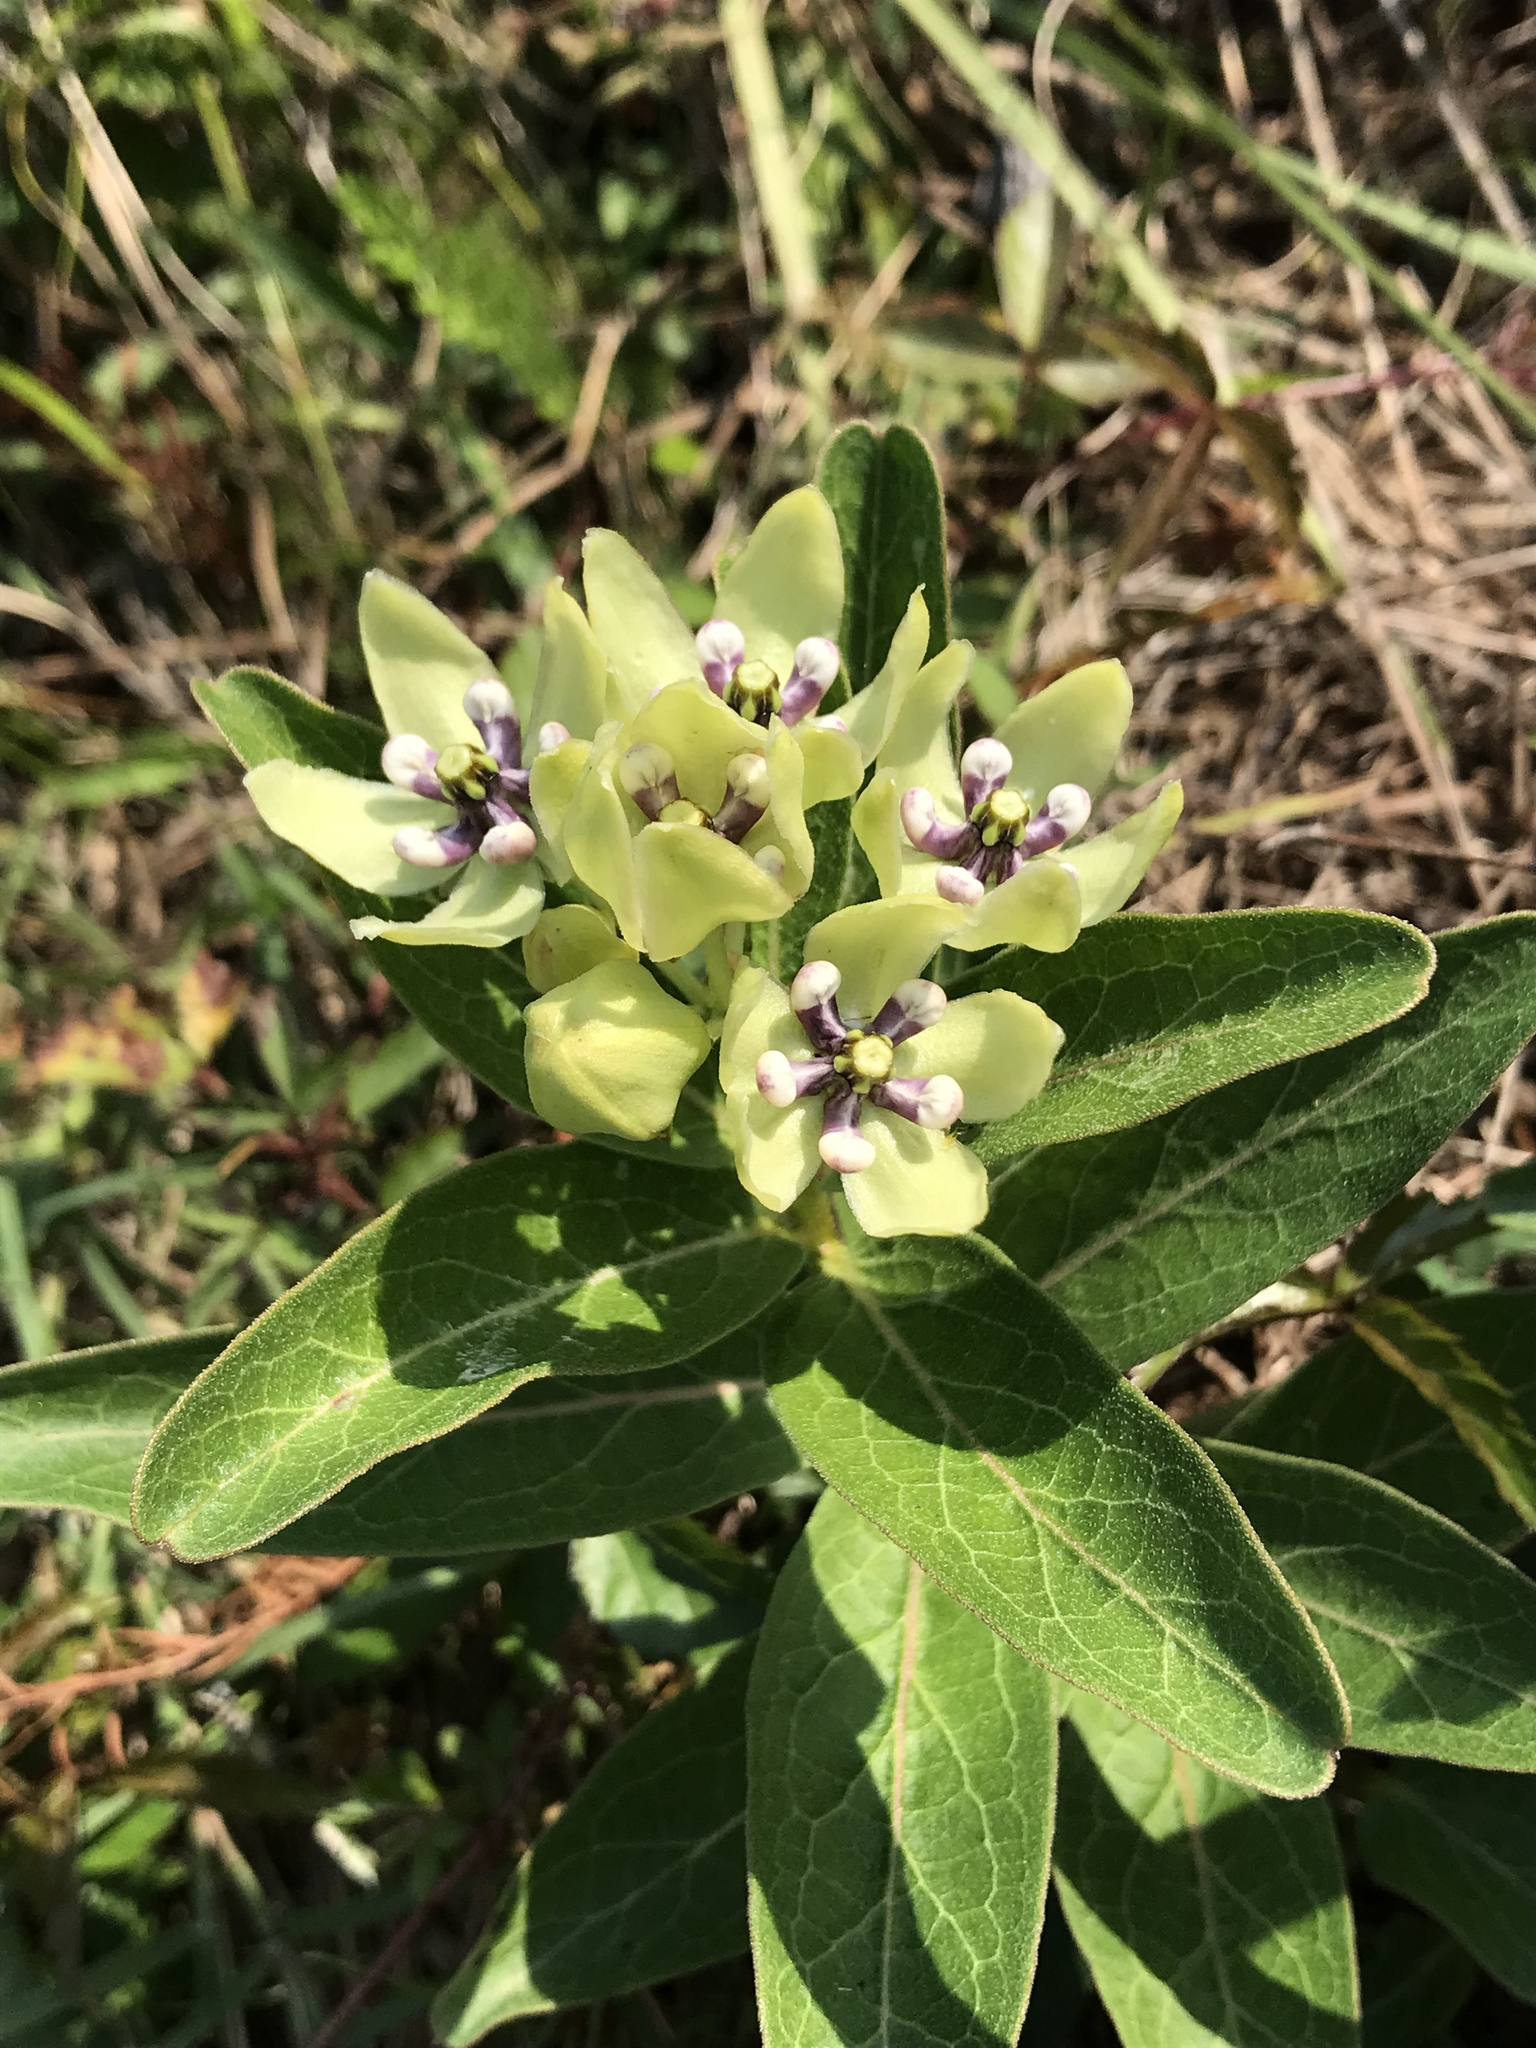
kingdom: Plantae
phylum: Tracheophyta
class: Magnoliopsida
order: Gentianales
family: Apocynaceae
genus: Asclepias
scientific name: Asclepias viridis
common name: Antelope-horns
